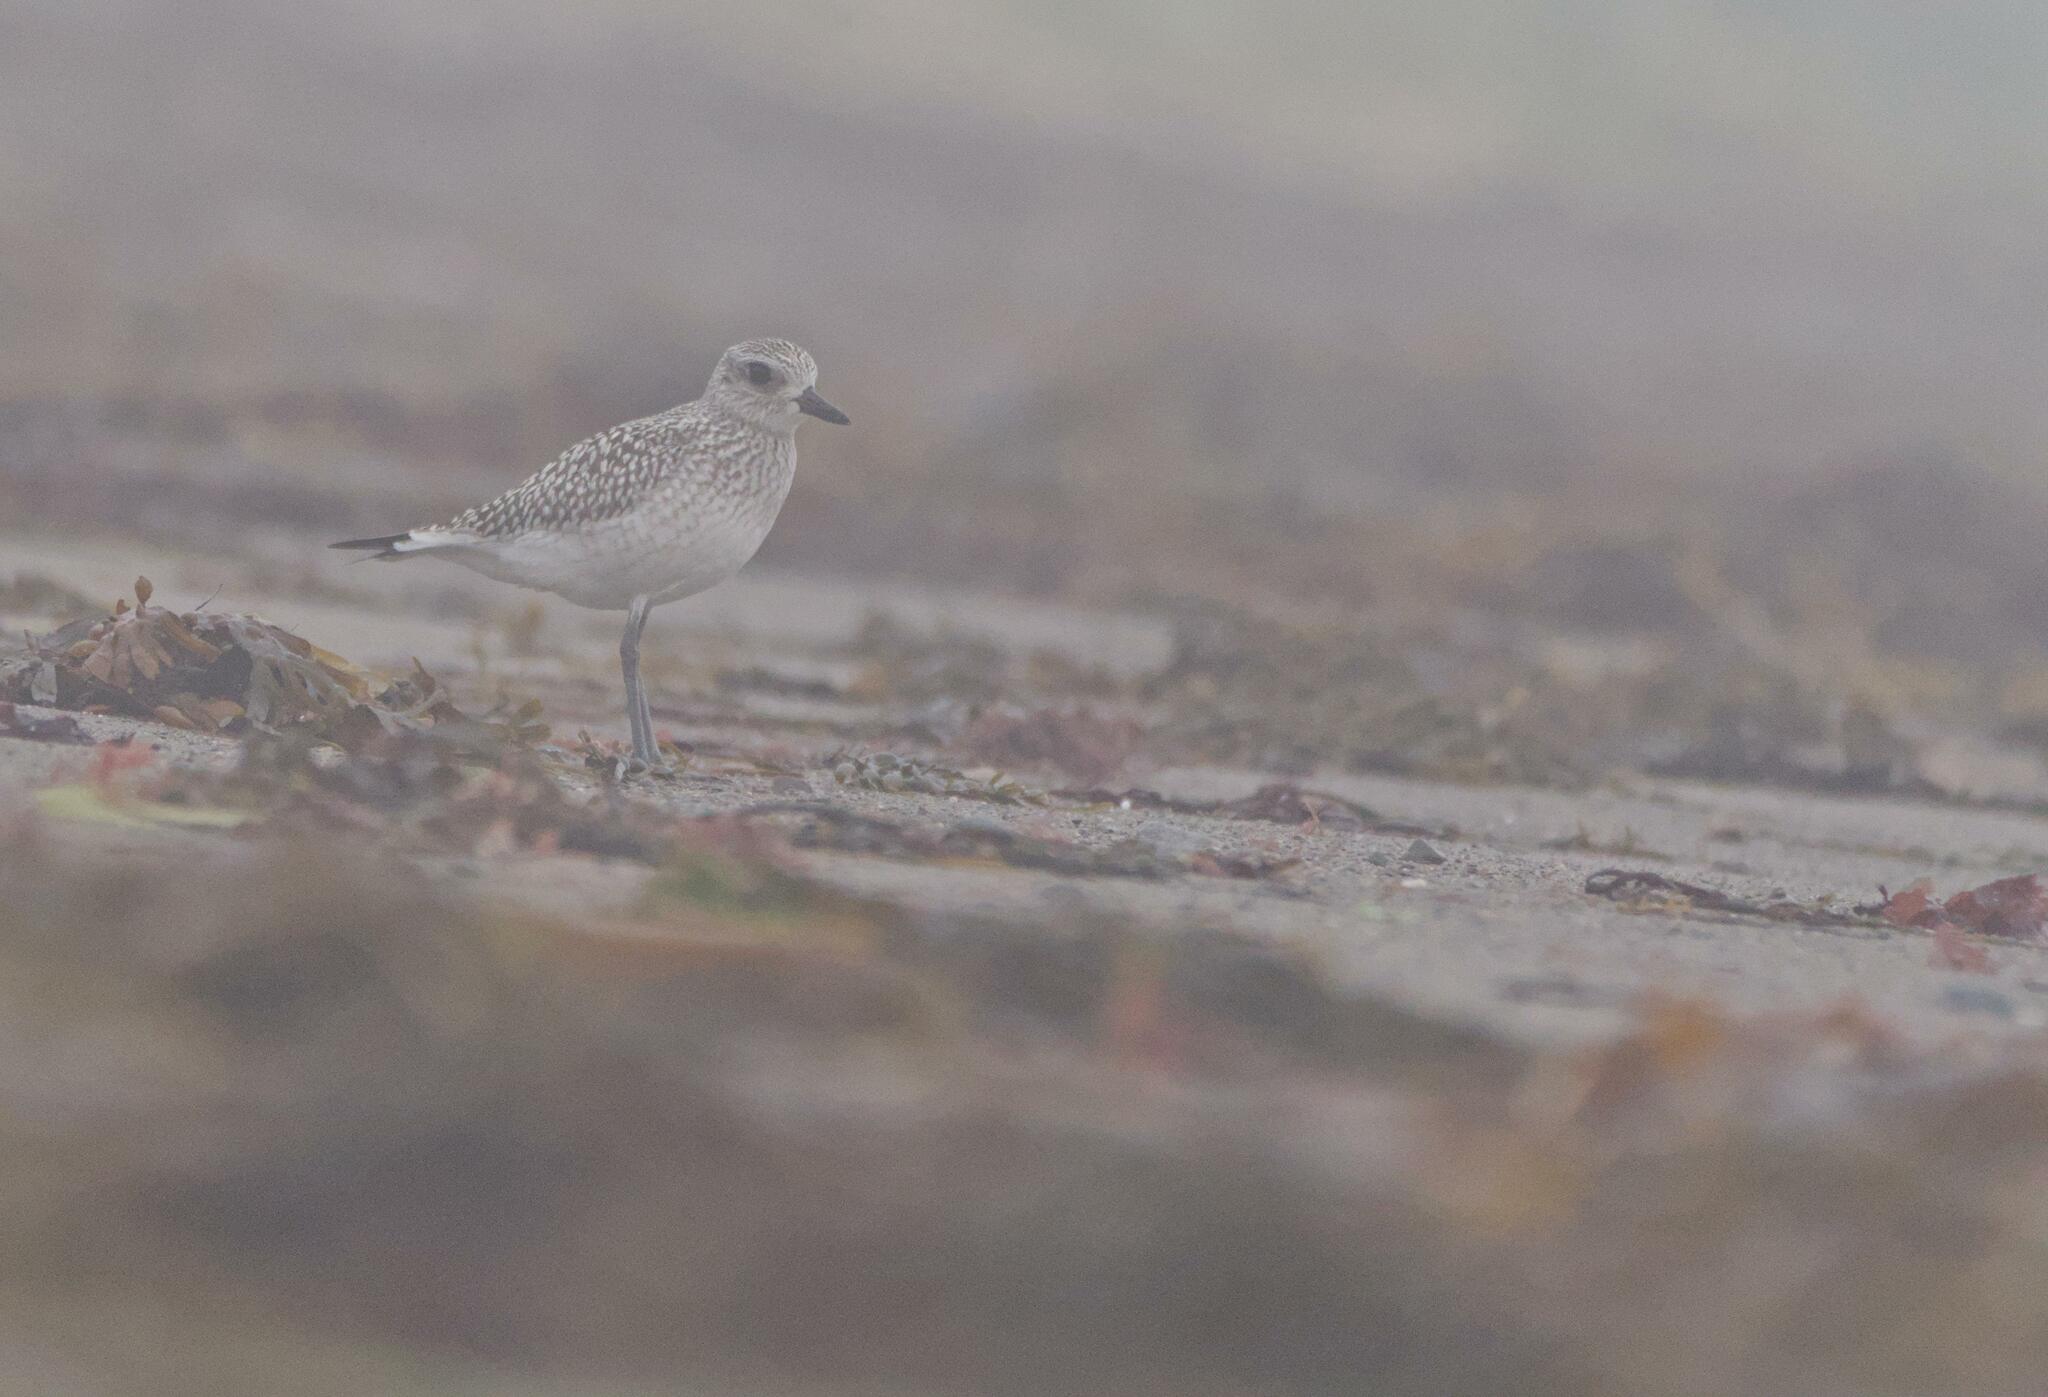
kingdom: Animalia
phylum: Chordata
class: Aves
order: Charadriiformes
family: Charadriidae
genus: Pluvialis
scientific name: Pluvialis squatarola
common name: Grey plover
